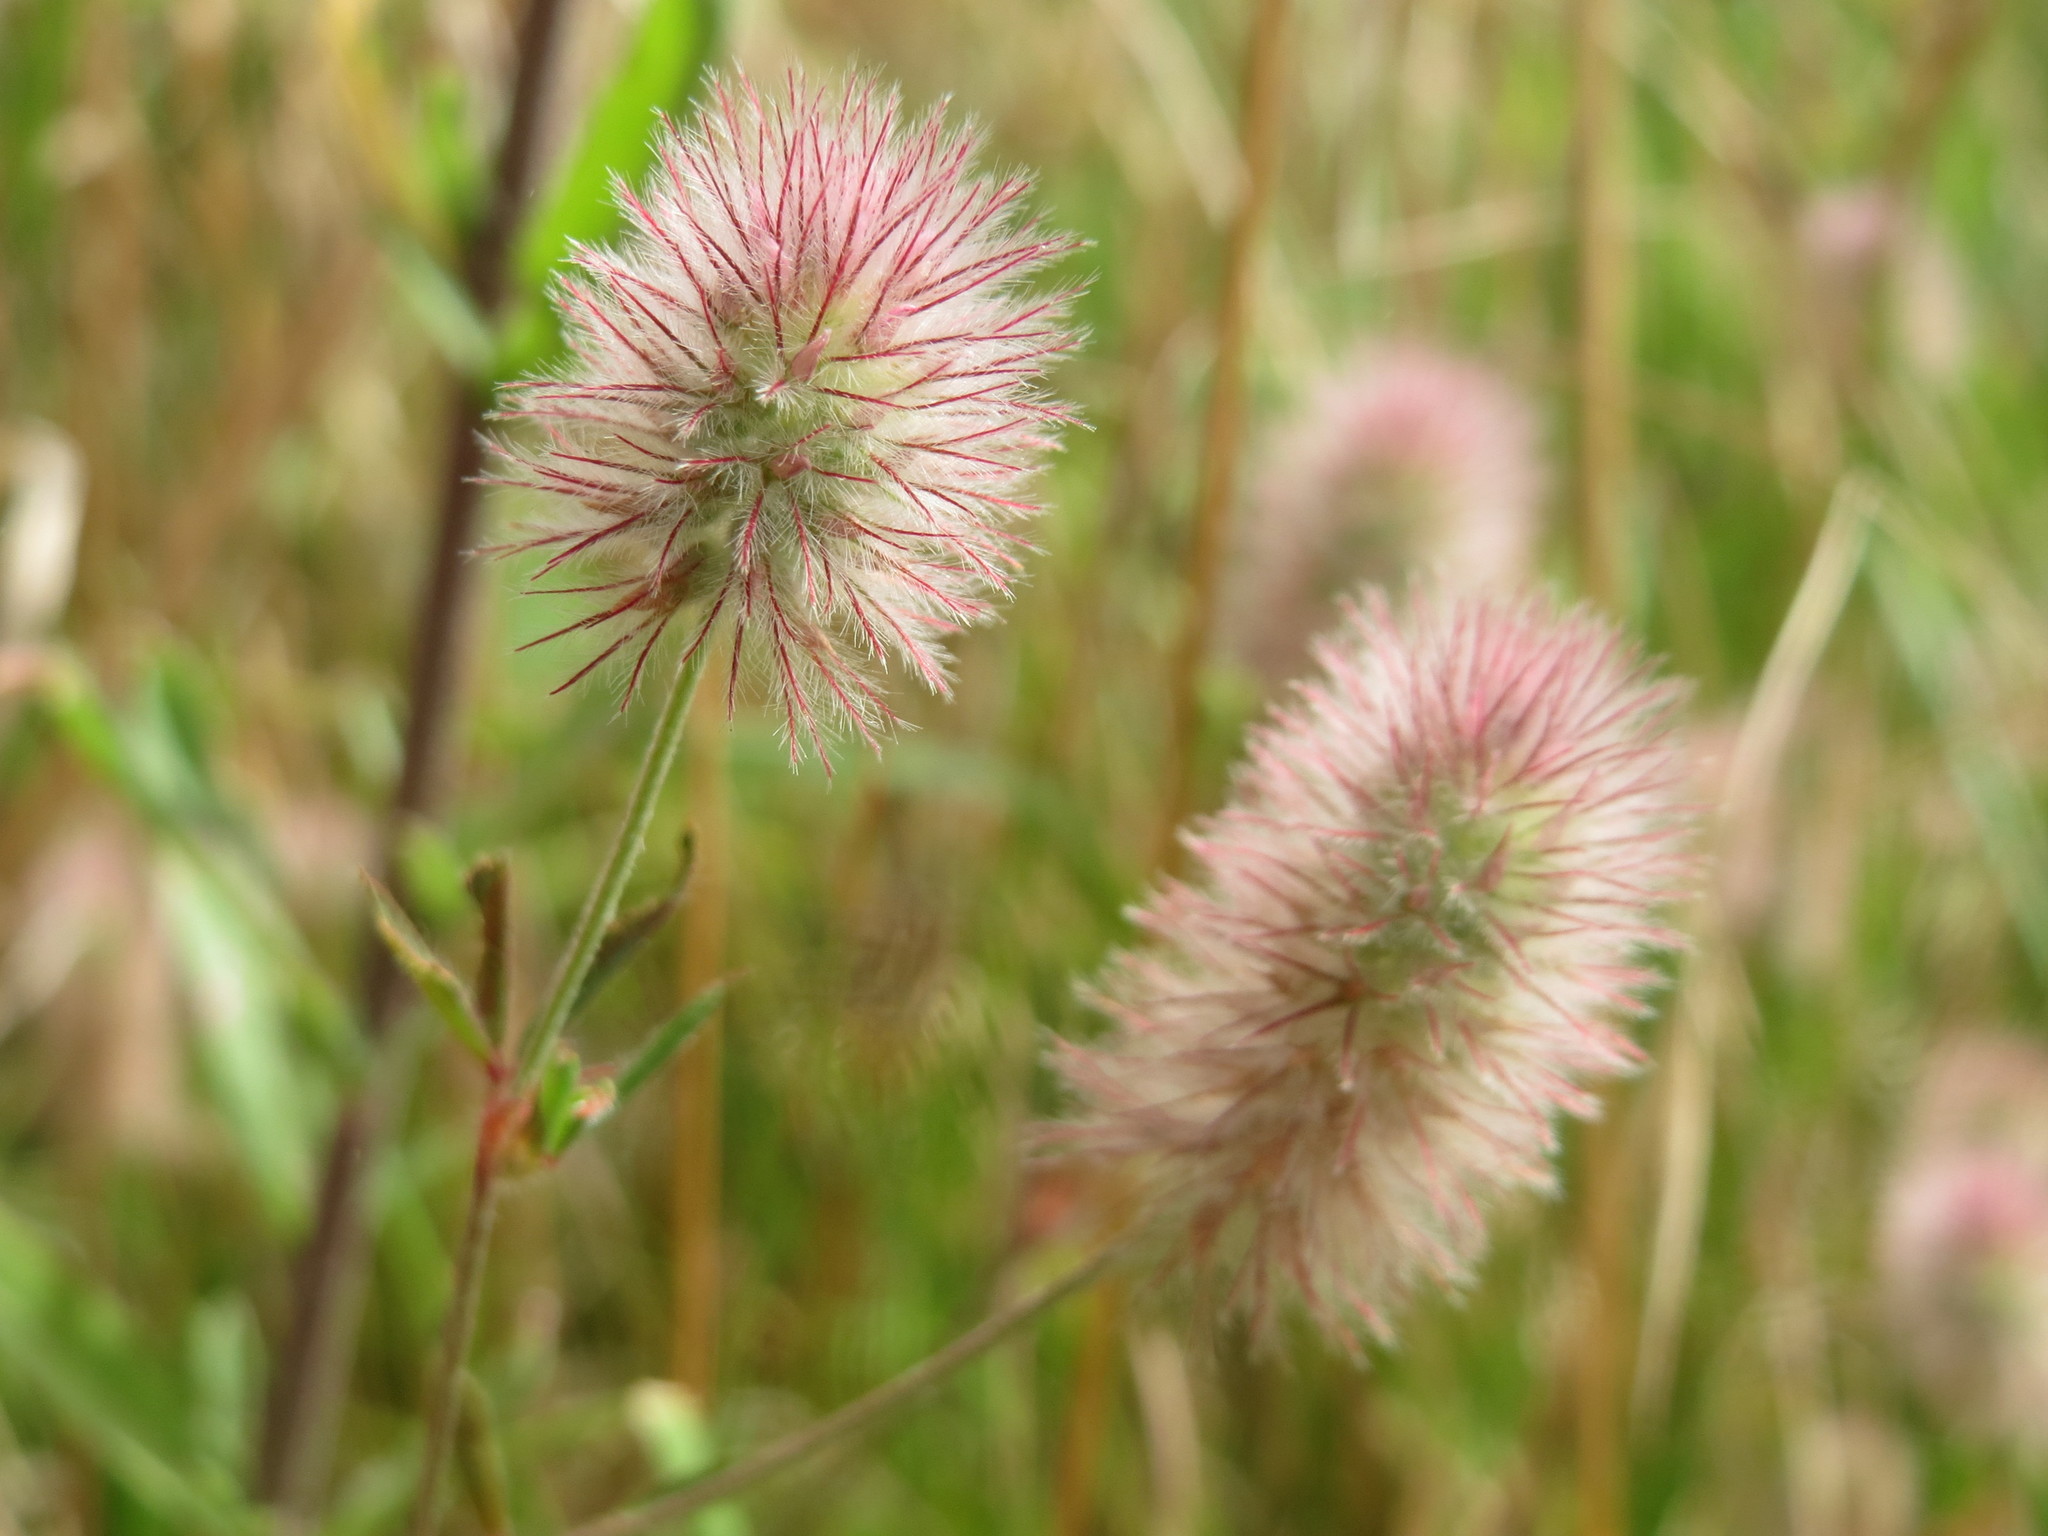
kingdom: Plantae
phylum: Tracheophyta
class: Magnoliopsida
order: Fabales
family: Fabaceae
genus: Trifolium
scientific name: Trifolium arvense
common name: Hare's-foot clover
